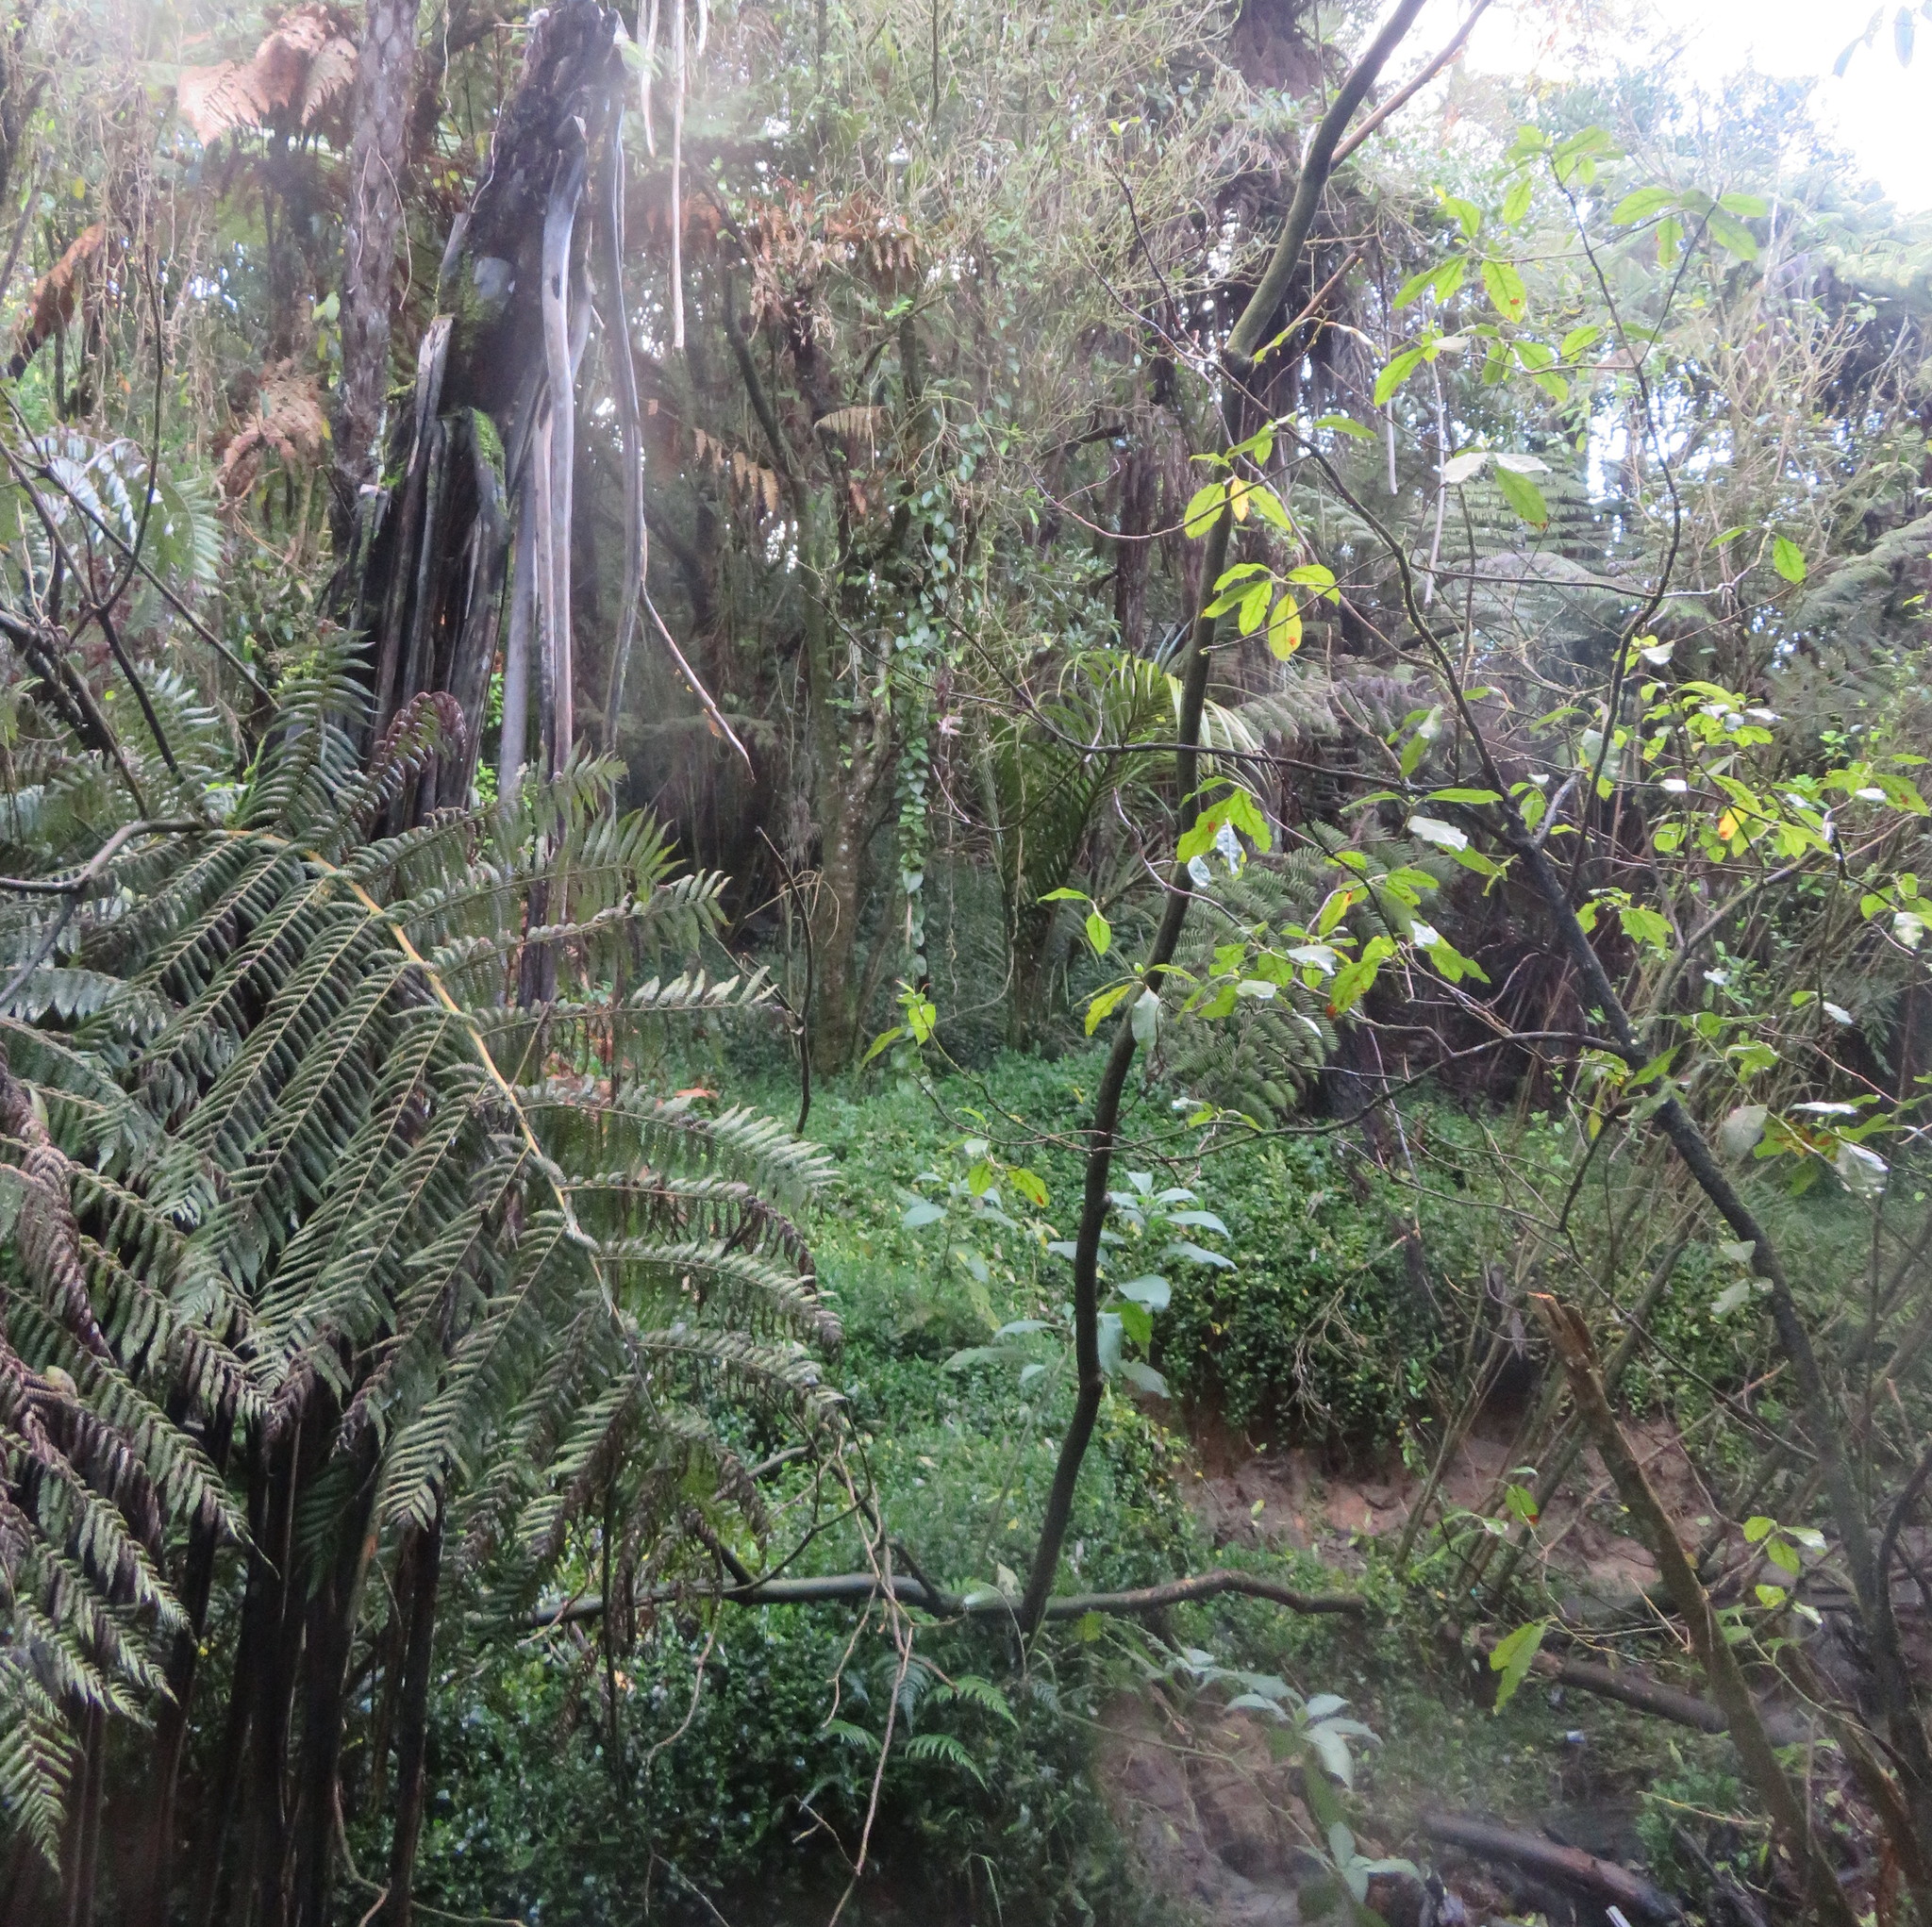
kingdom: Plantae
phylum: Tracheophyta
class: Polypodiopsida
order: Cyatheales
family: Cyatheaceae
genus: Alsophila
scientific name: Alsophila dealbata
